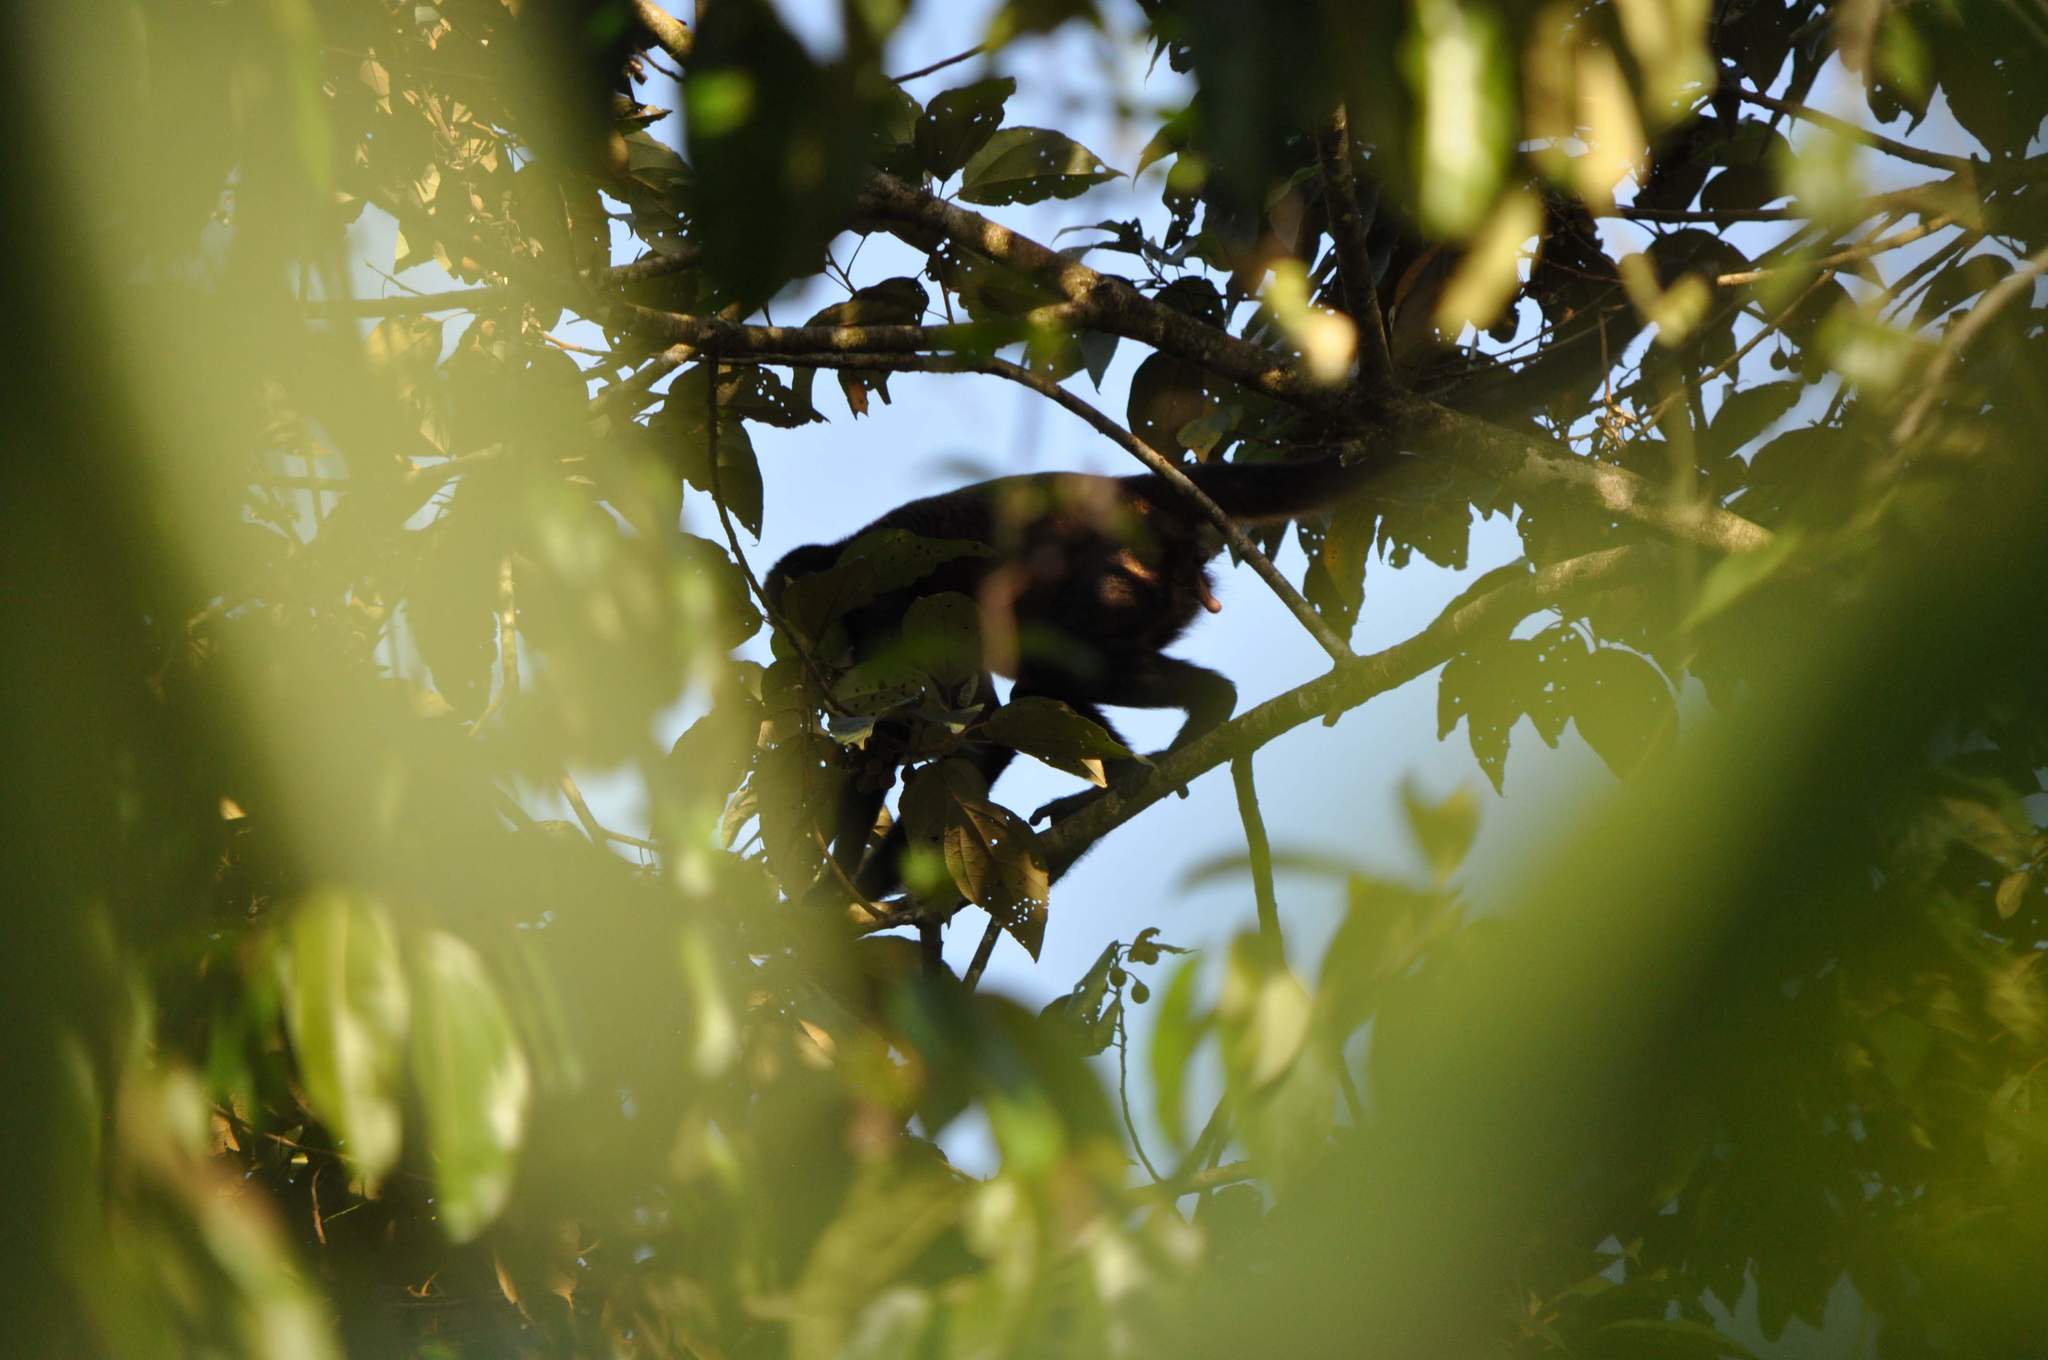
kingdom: Animalia
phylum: Chordata
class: Mammalia
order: Primates
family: Atelidae
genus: Ateles
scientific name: Ateles geoffroyi
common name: Black-handed spider monkey
